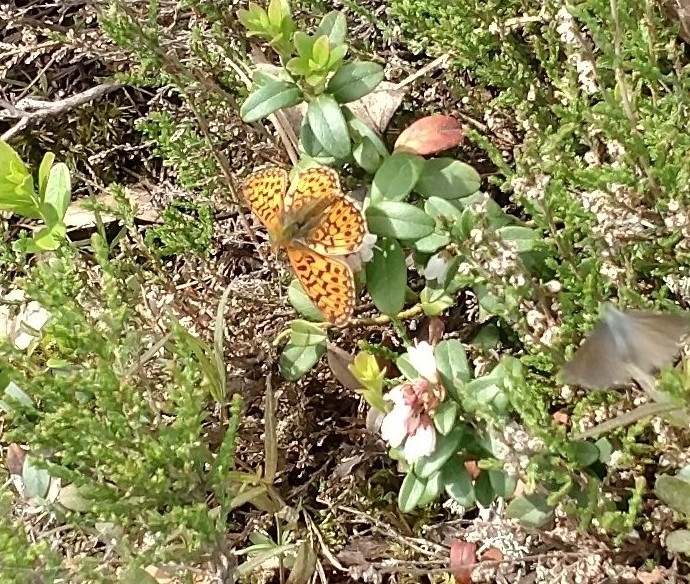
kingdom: Animalia
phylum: Arthropoda
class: Insecta
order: Lepidoptera
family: Nymphalidae
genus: Clossiana
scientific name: Clossiana euphrosyne
